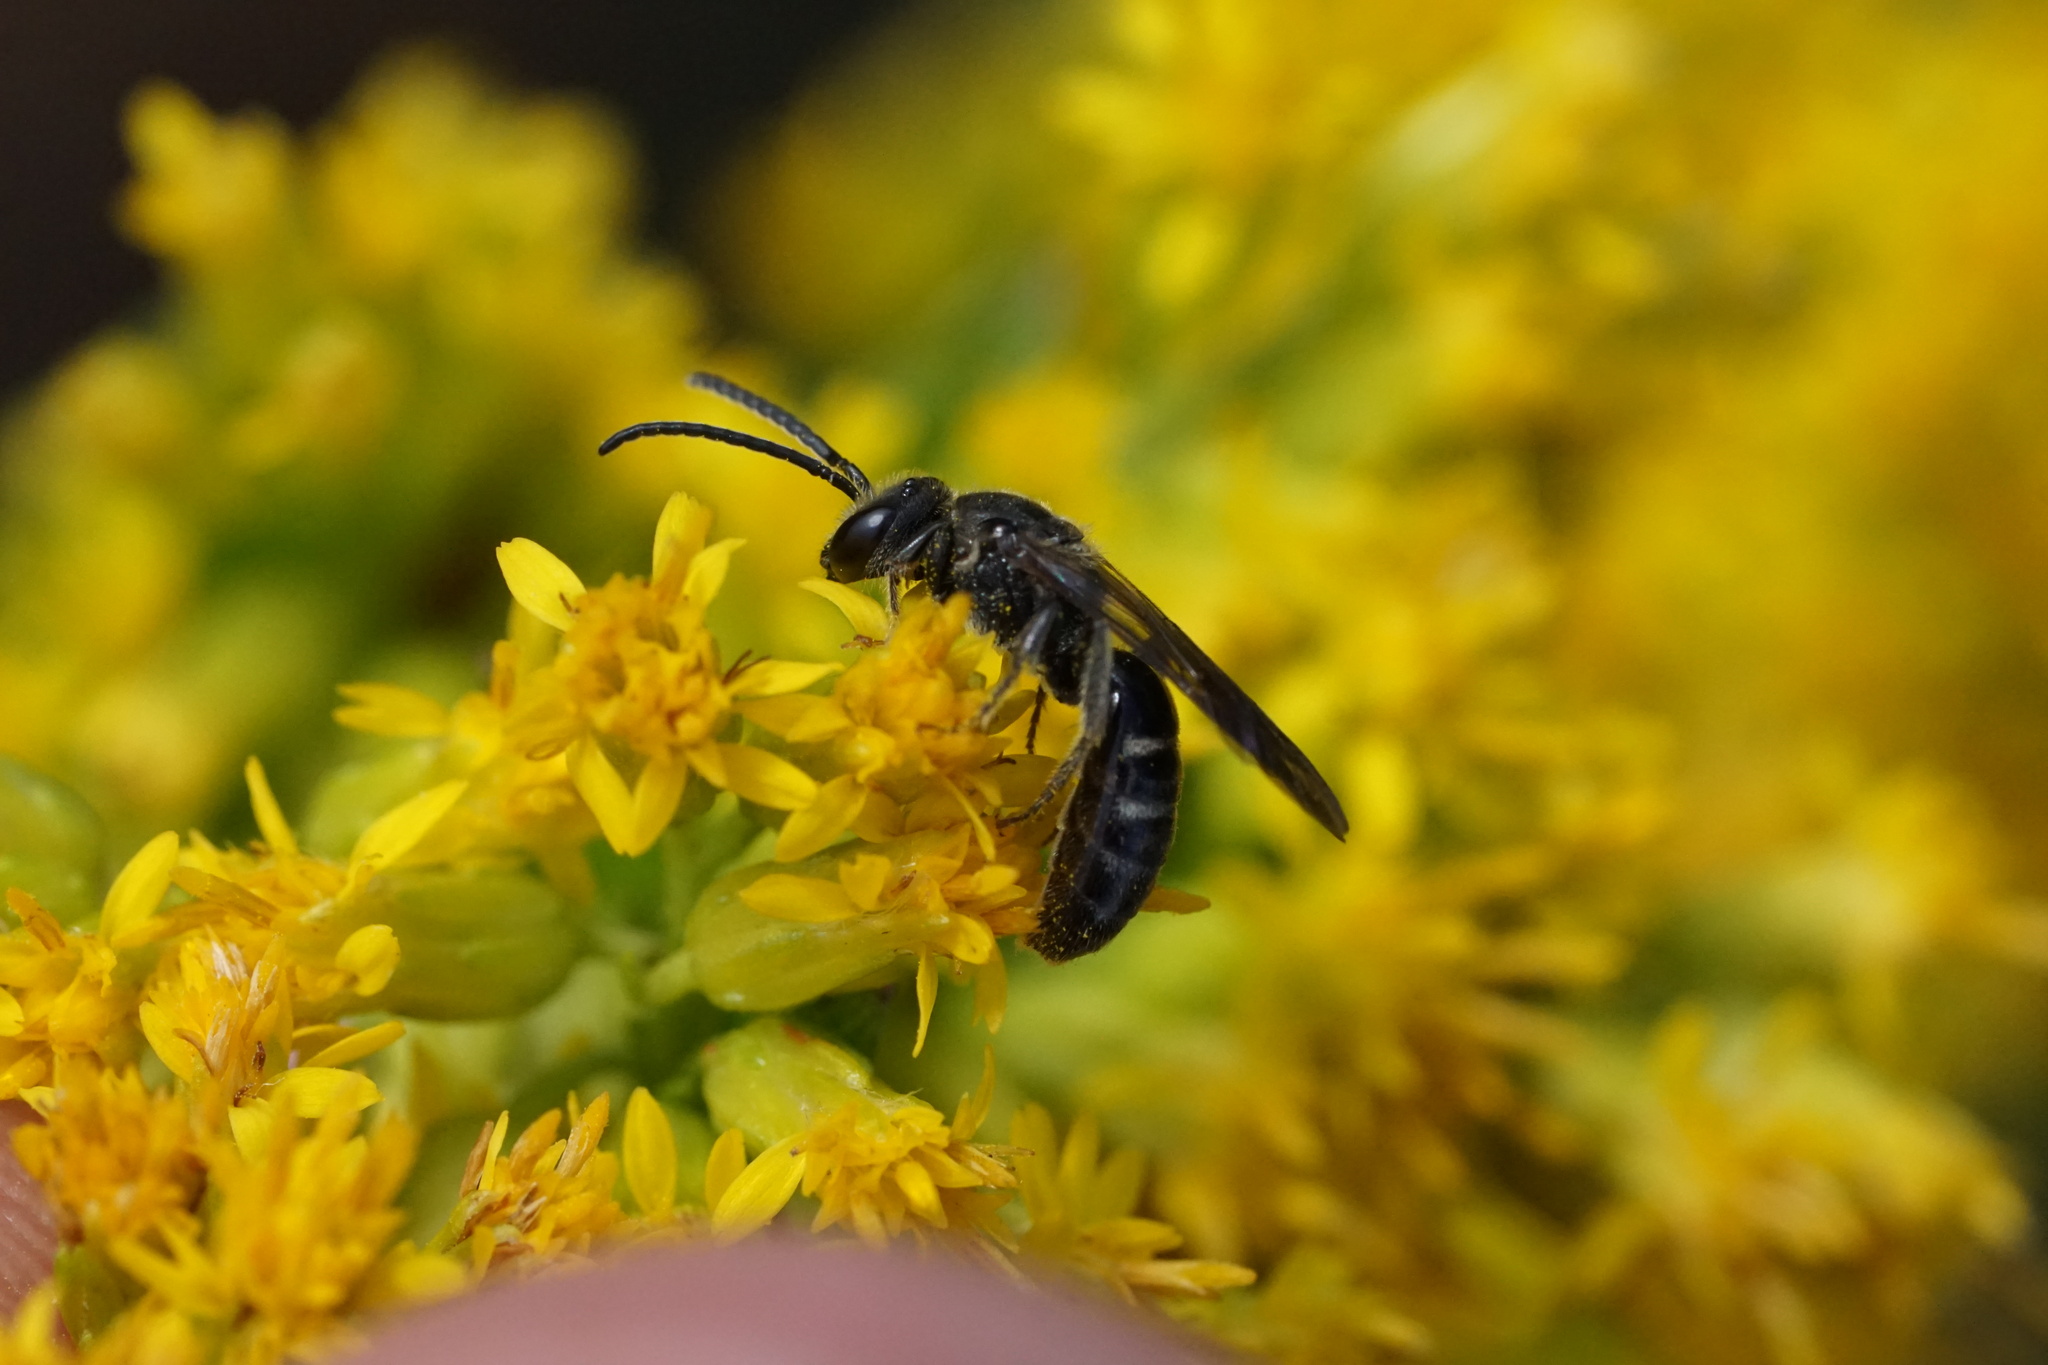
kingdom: Animalia
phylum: Arthropoda
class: Insecta
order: Hymenoptera
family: Halictidae
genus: Lasioglossum
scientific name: Lasioglossum fuscipenne
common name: Brown-winged sweat bee
